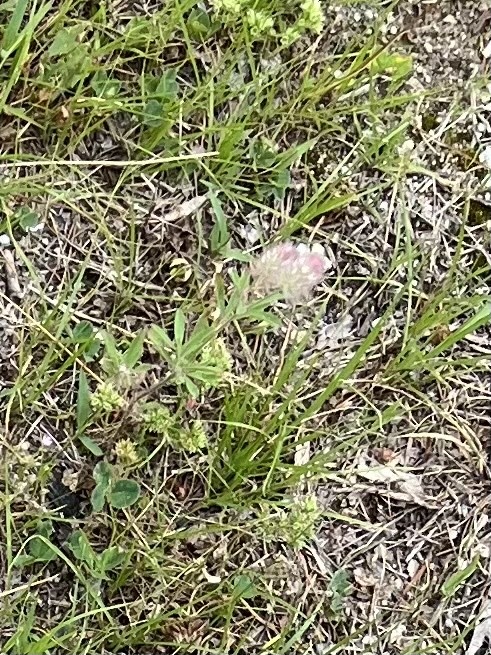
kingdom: Plantae
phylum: Tracheophyta
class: Magnoliopsida
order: Fabales
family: Fabaceae
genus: Trifolium
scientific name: Trifolium arvense
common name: Hare's-foot clover
